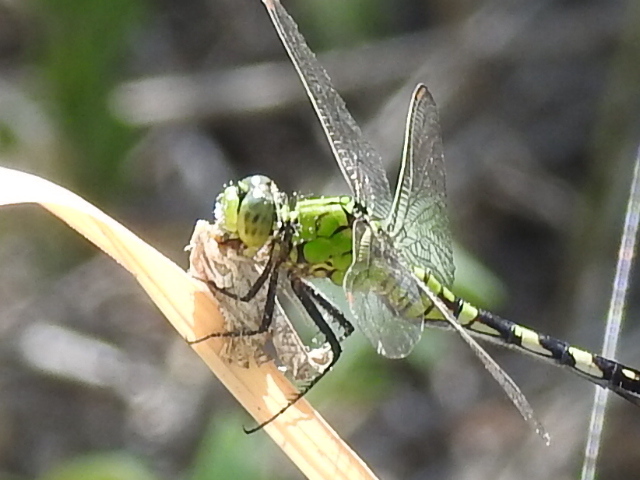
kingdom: Animalia
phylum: Arthropoda
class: Insecta
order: Odonata
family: Libellulidae
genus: Erythemis
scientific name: Erythemis simplicicollis
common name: Eastern pondhawk
